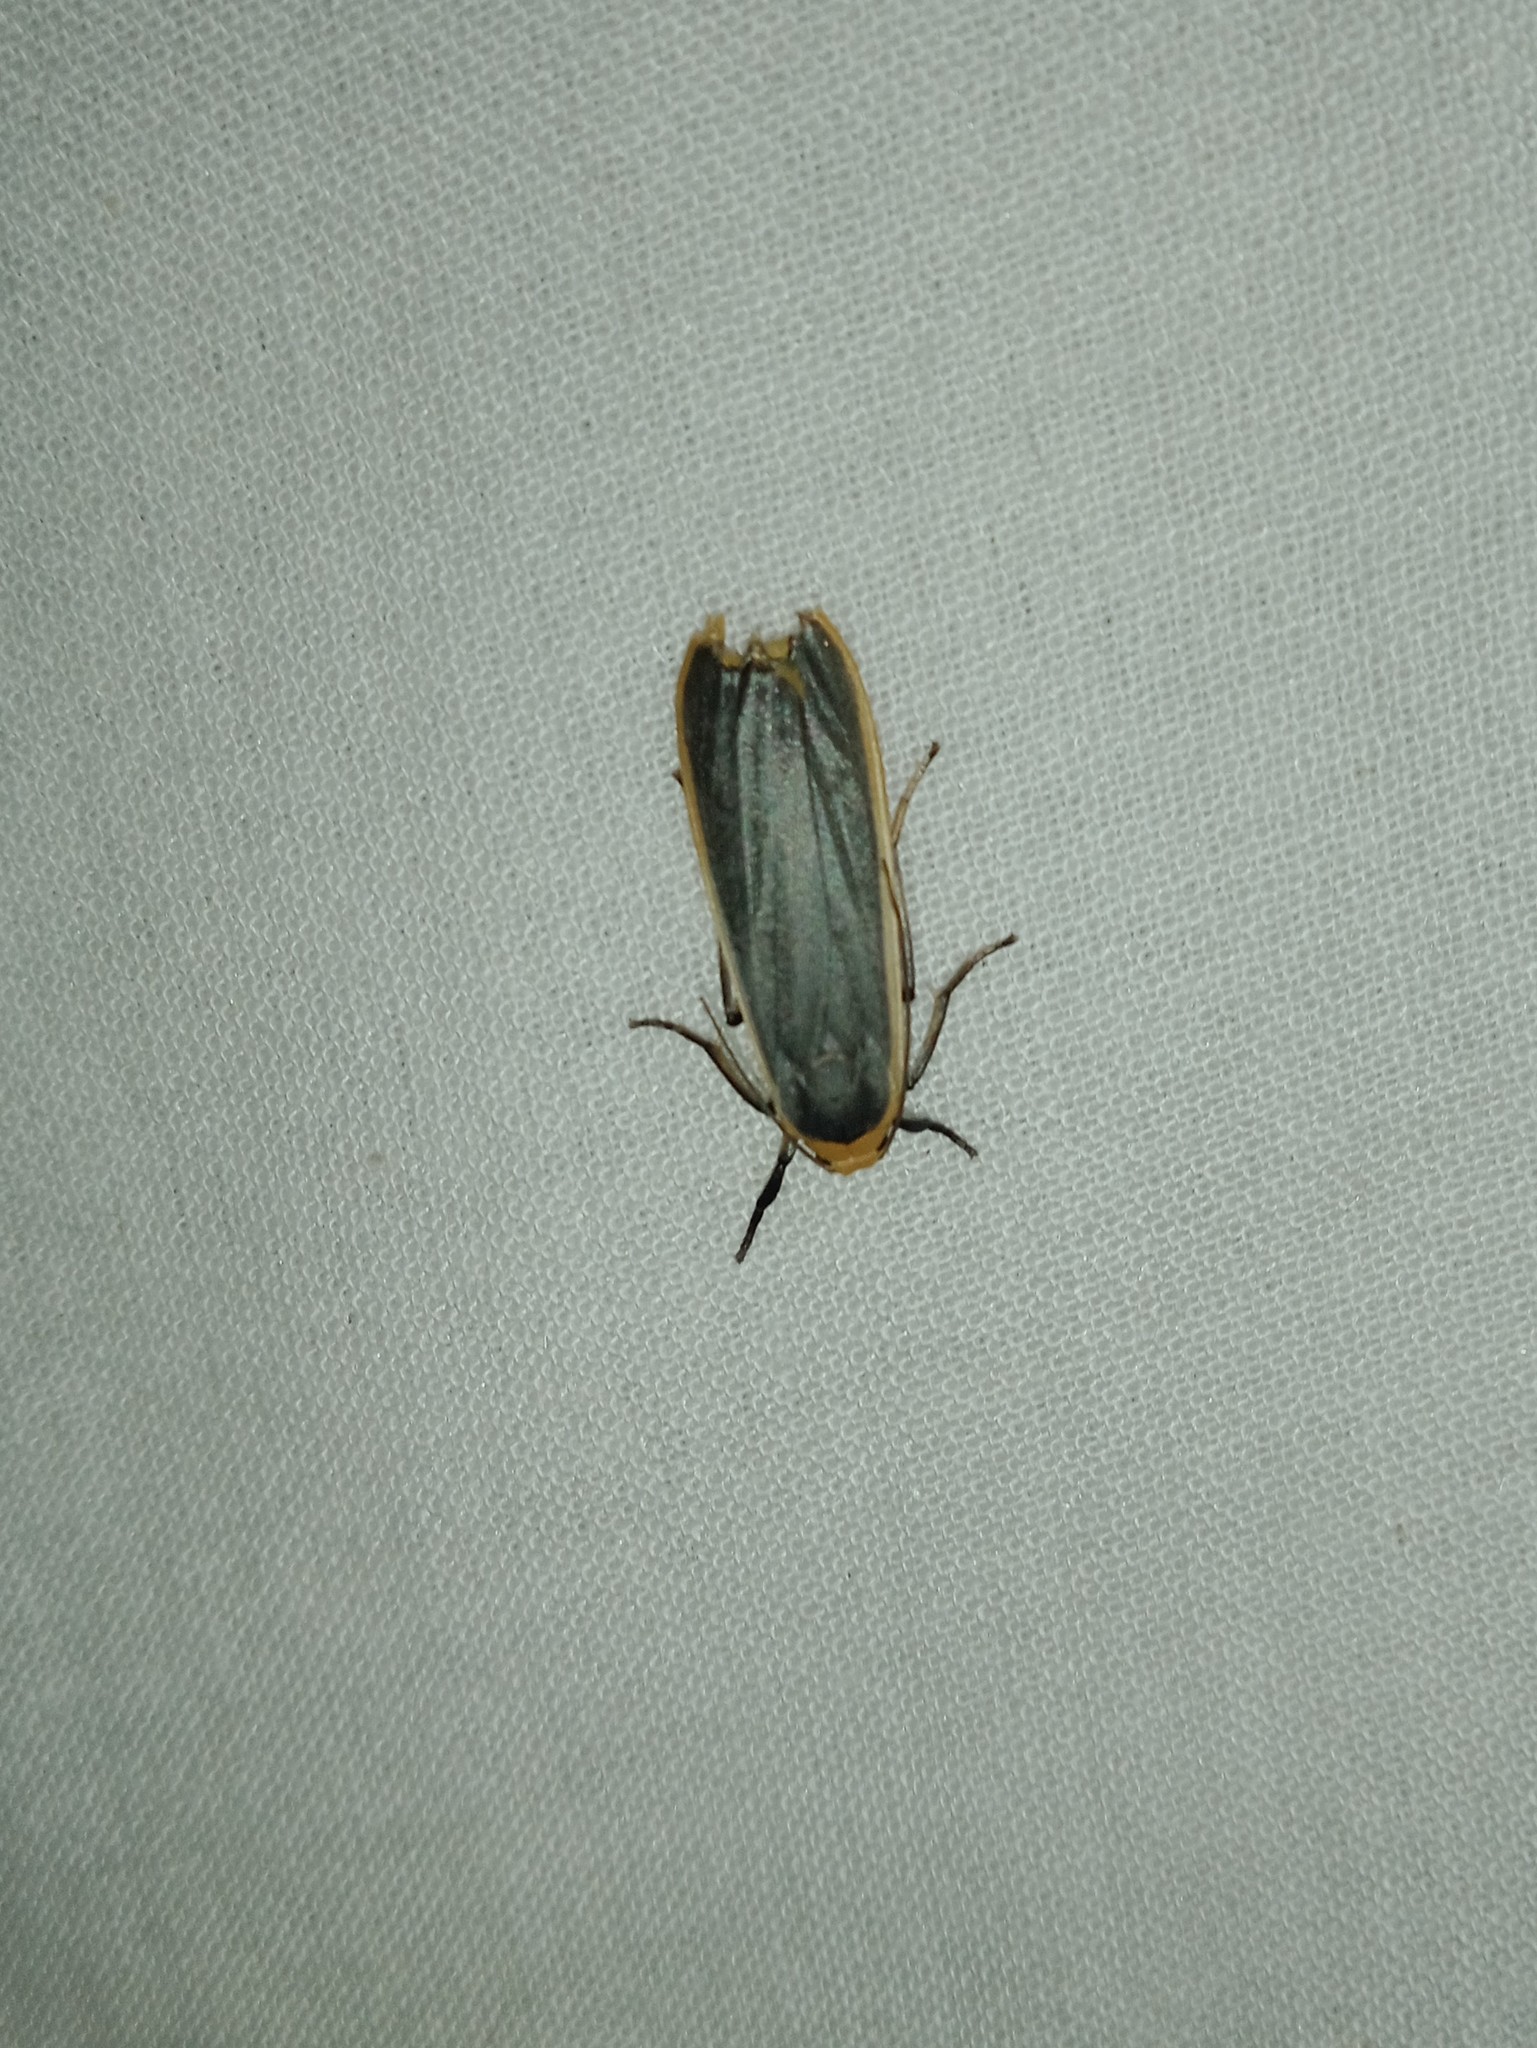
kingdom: Animalia
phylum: Arthropoda
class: Insecta
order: Lepidoptera
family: Erebidae
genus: Brunia
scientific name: Brunia antica
